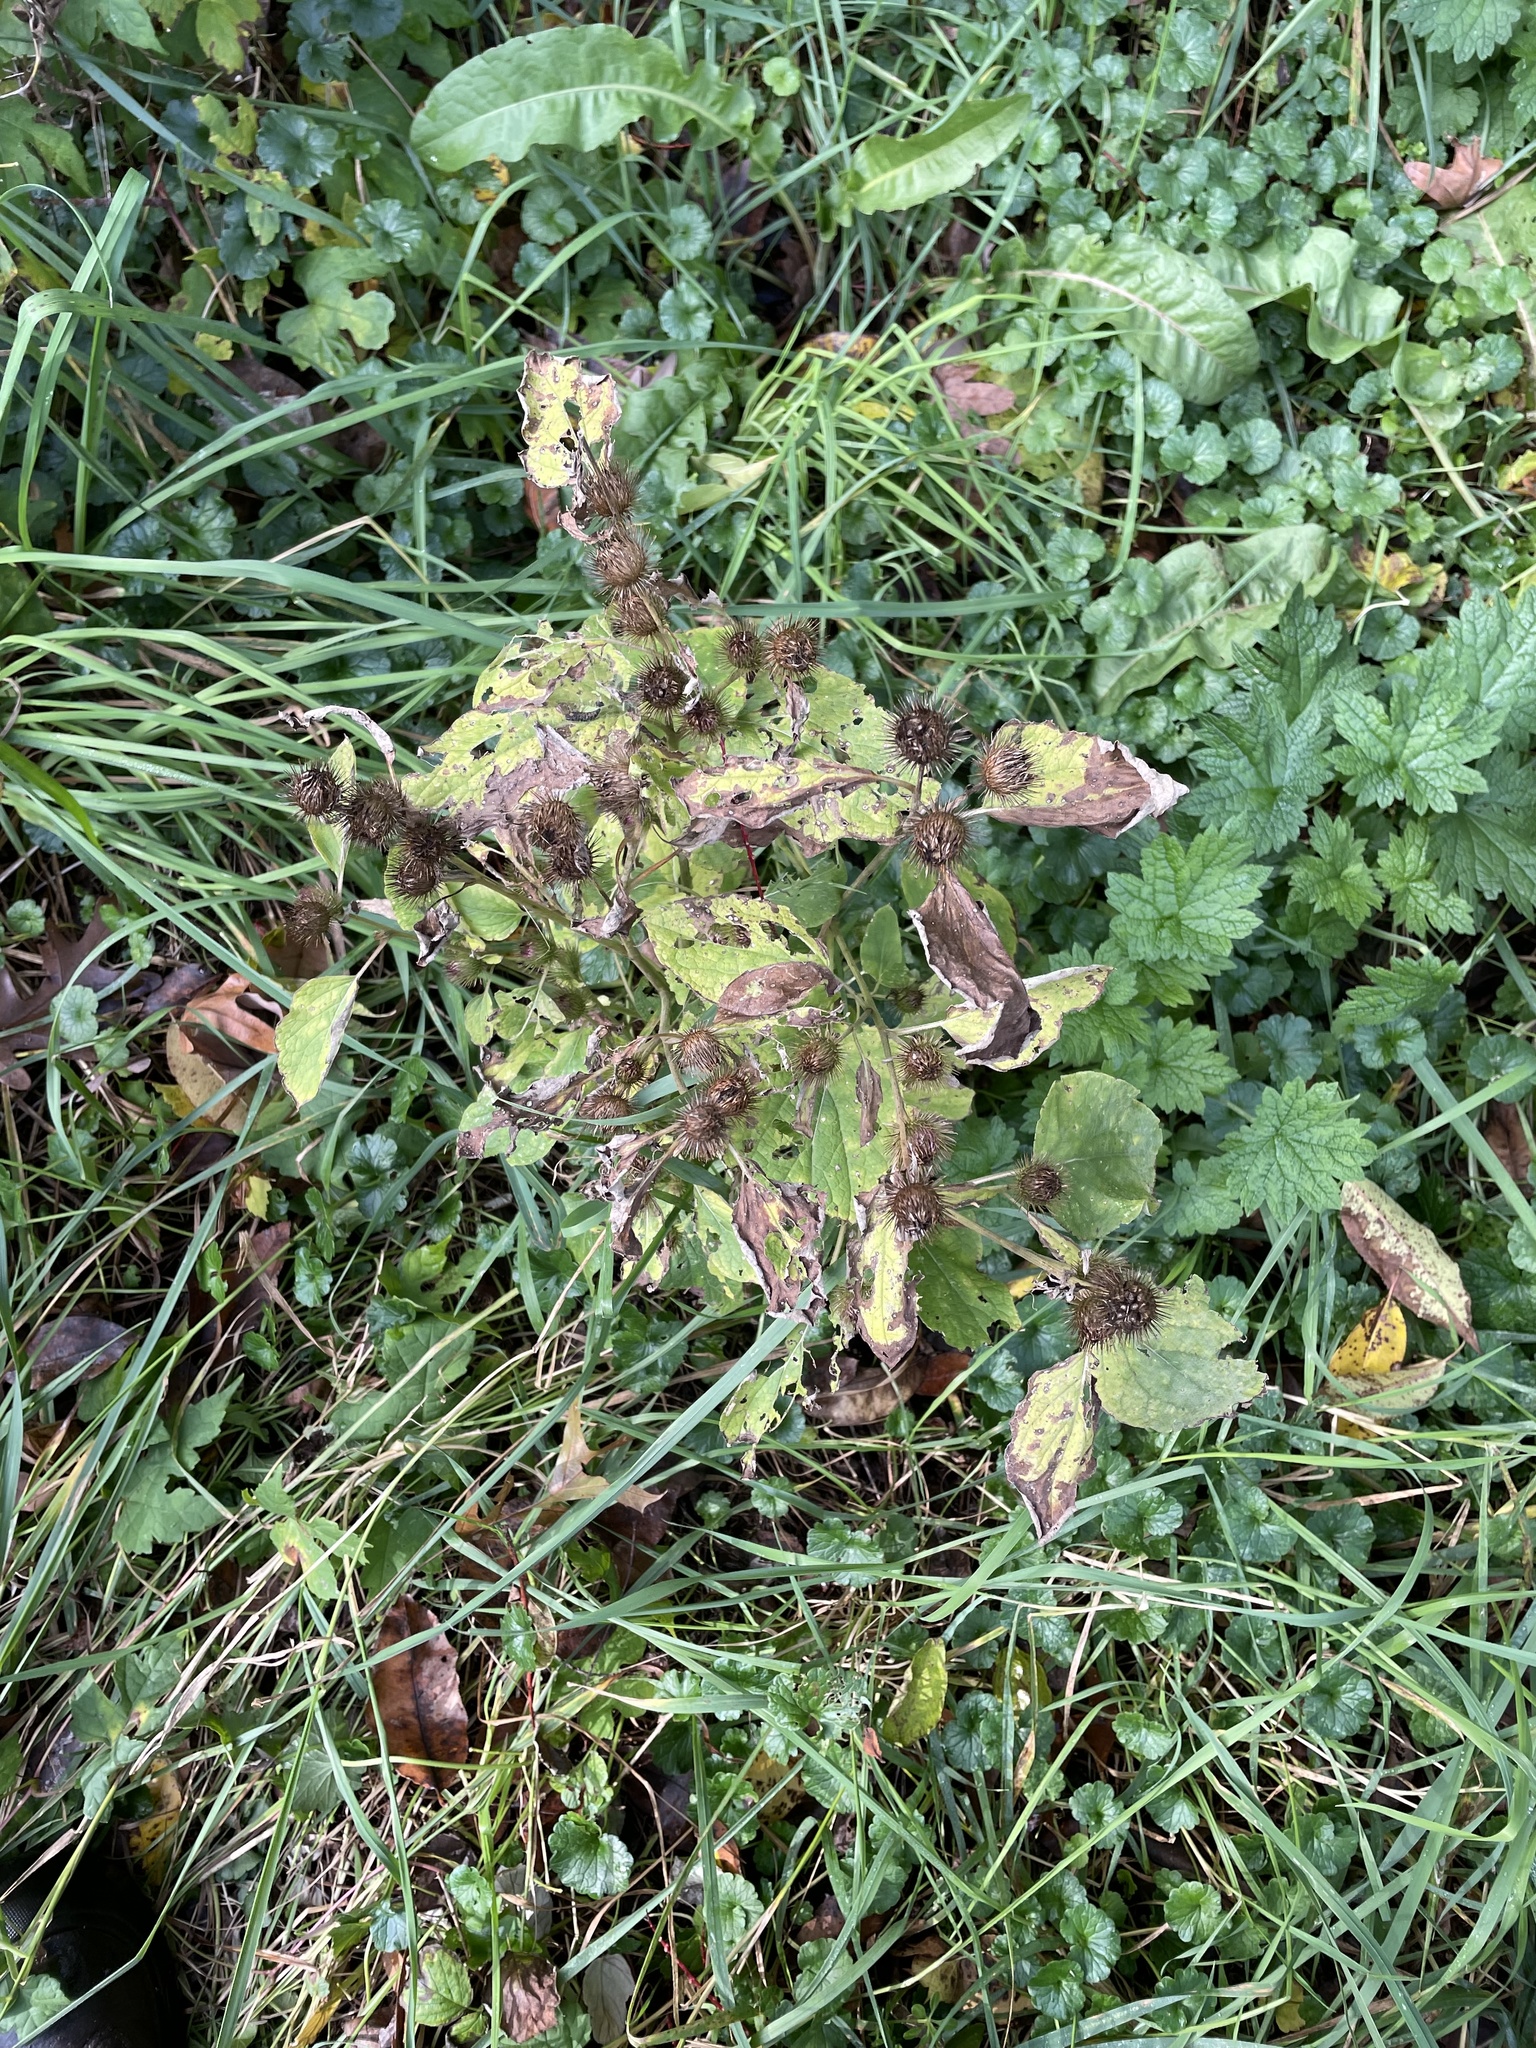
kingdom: Plantae
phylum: Tracheophyta
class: Magnoliopsida
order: Asterales
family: Asteraceae
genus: Arctium
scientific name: Arctium minus
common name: Lesser burdock
